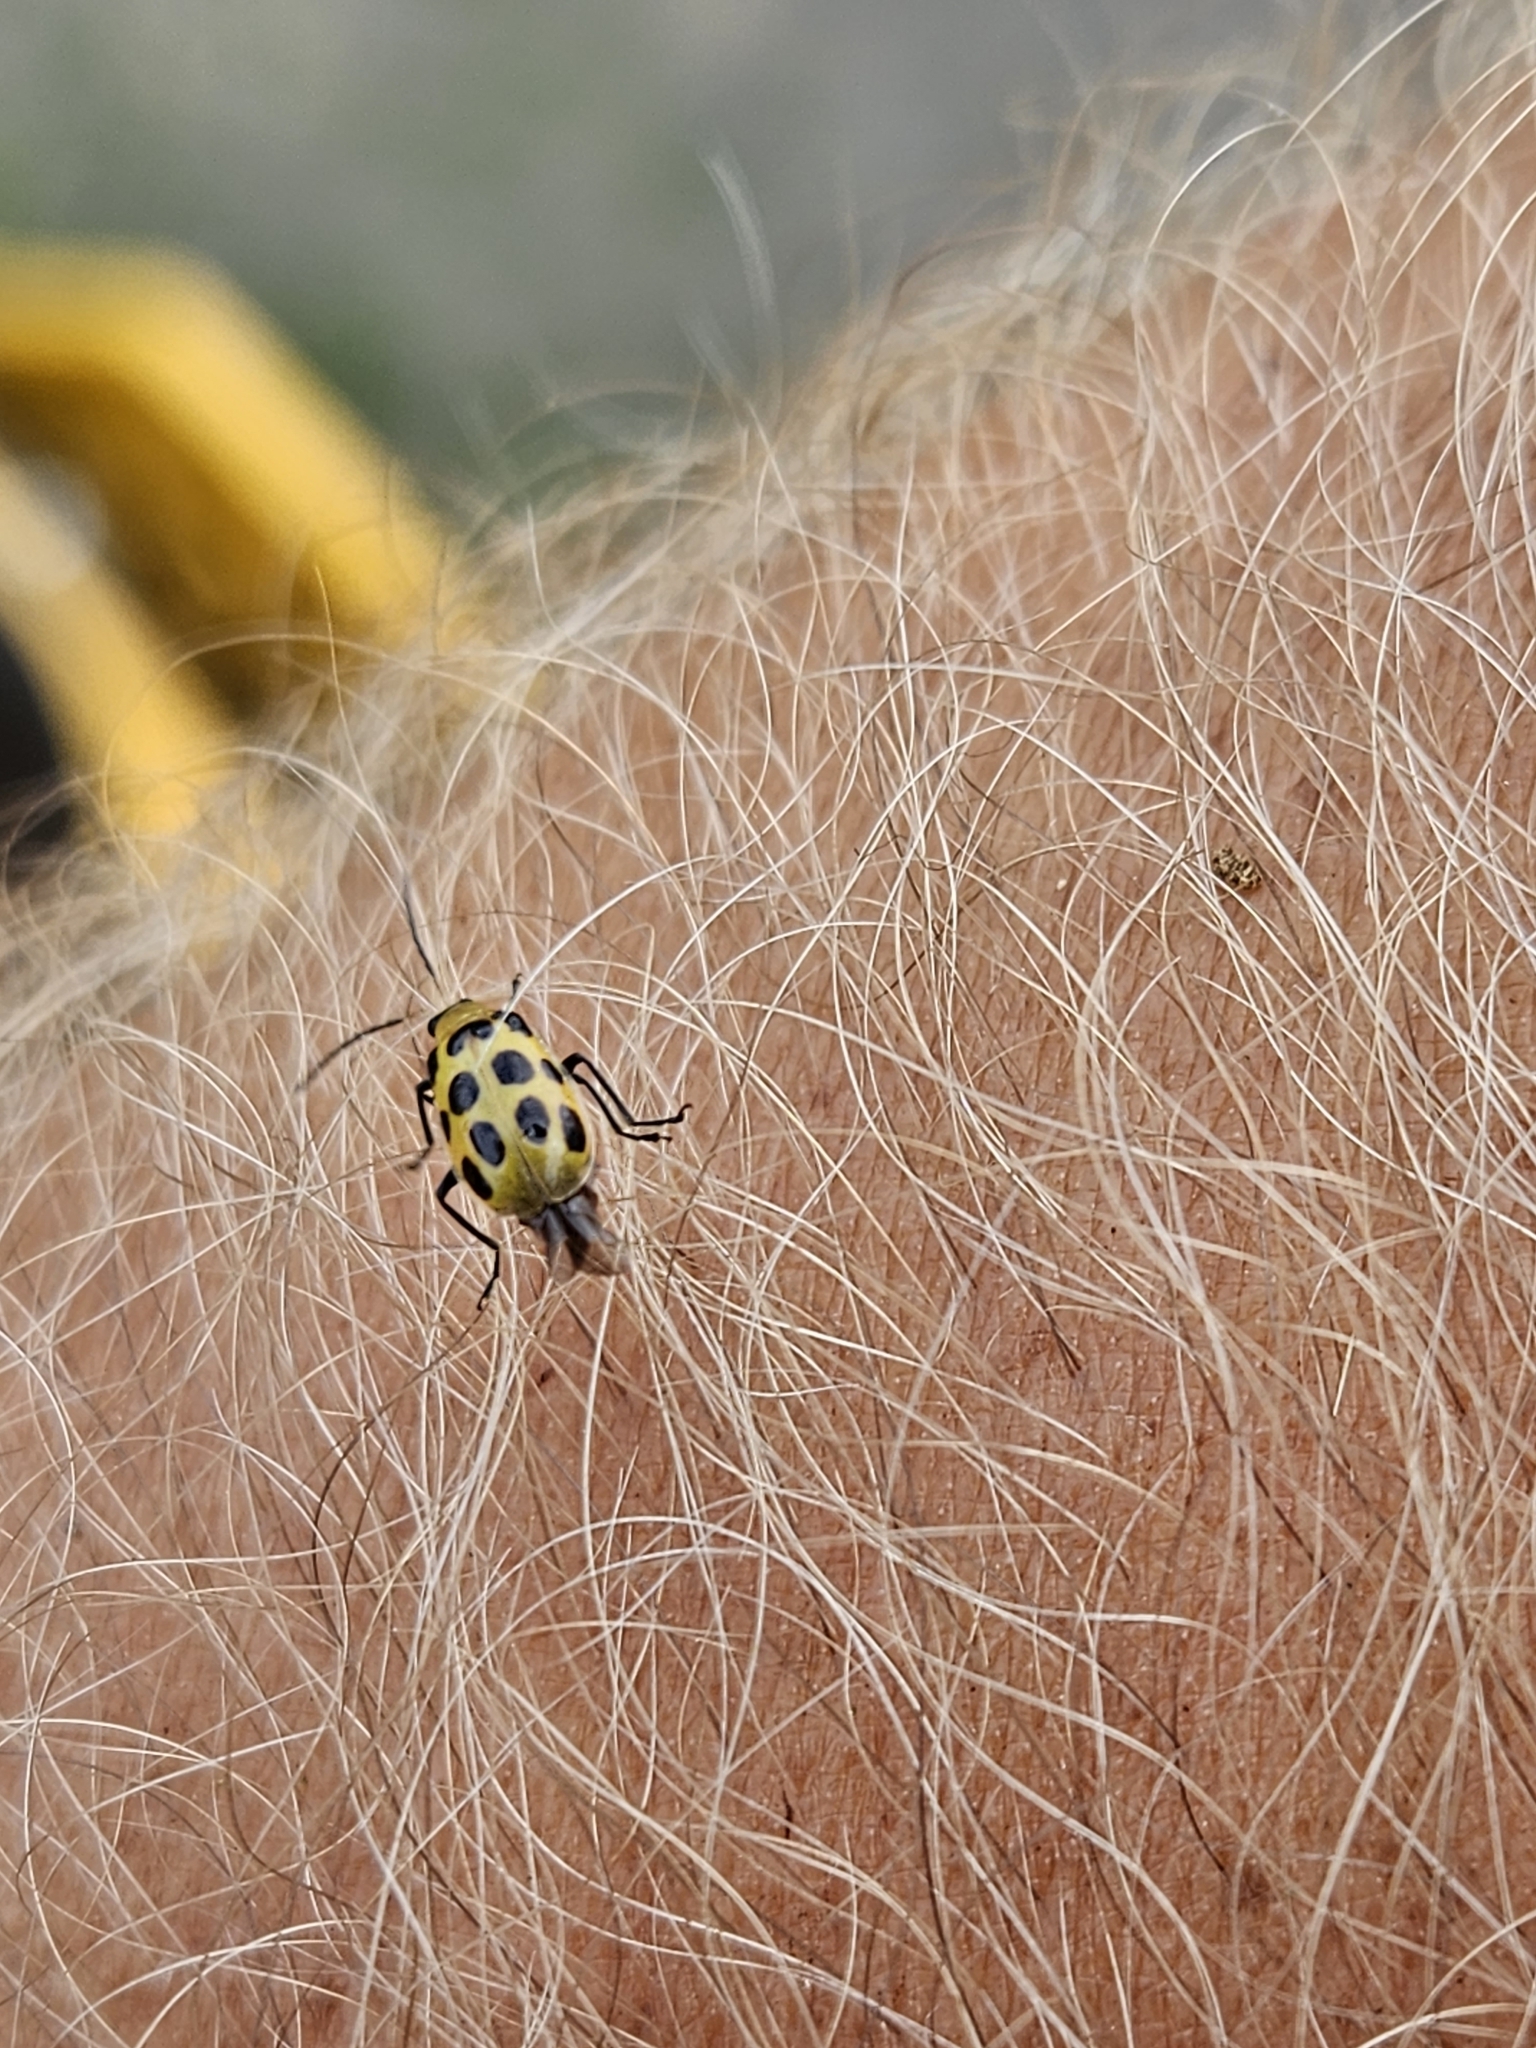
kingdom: Animalia
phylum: Arthropoda
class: Insecta
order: Coleoptera
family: Chrysomelidae
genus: Diabrotica
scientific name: Diabrotica undecimpunctata
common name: Spotted cucumber beetle
